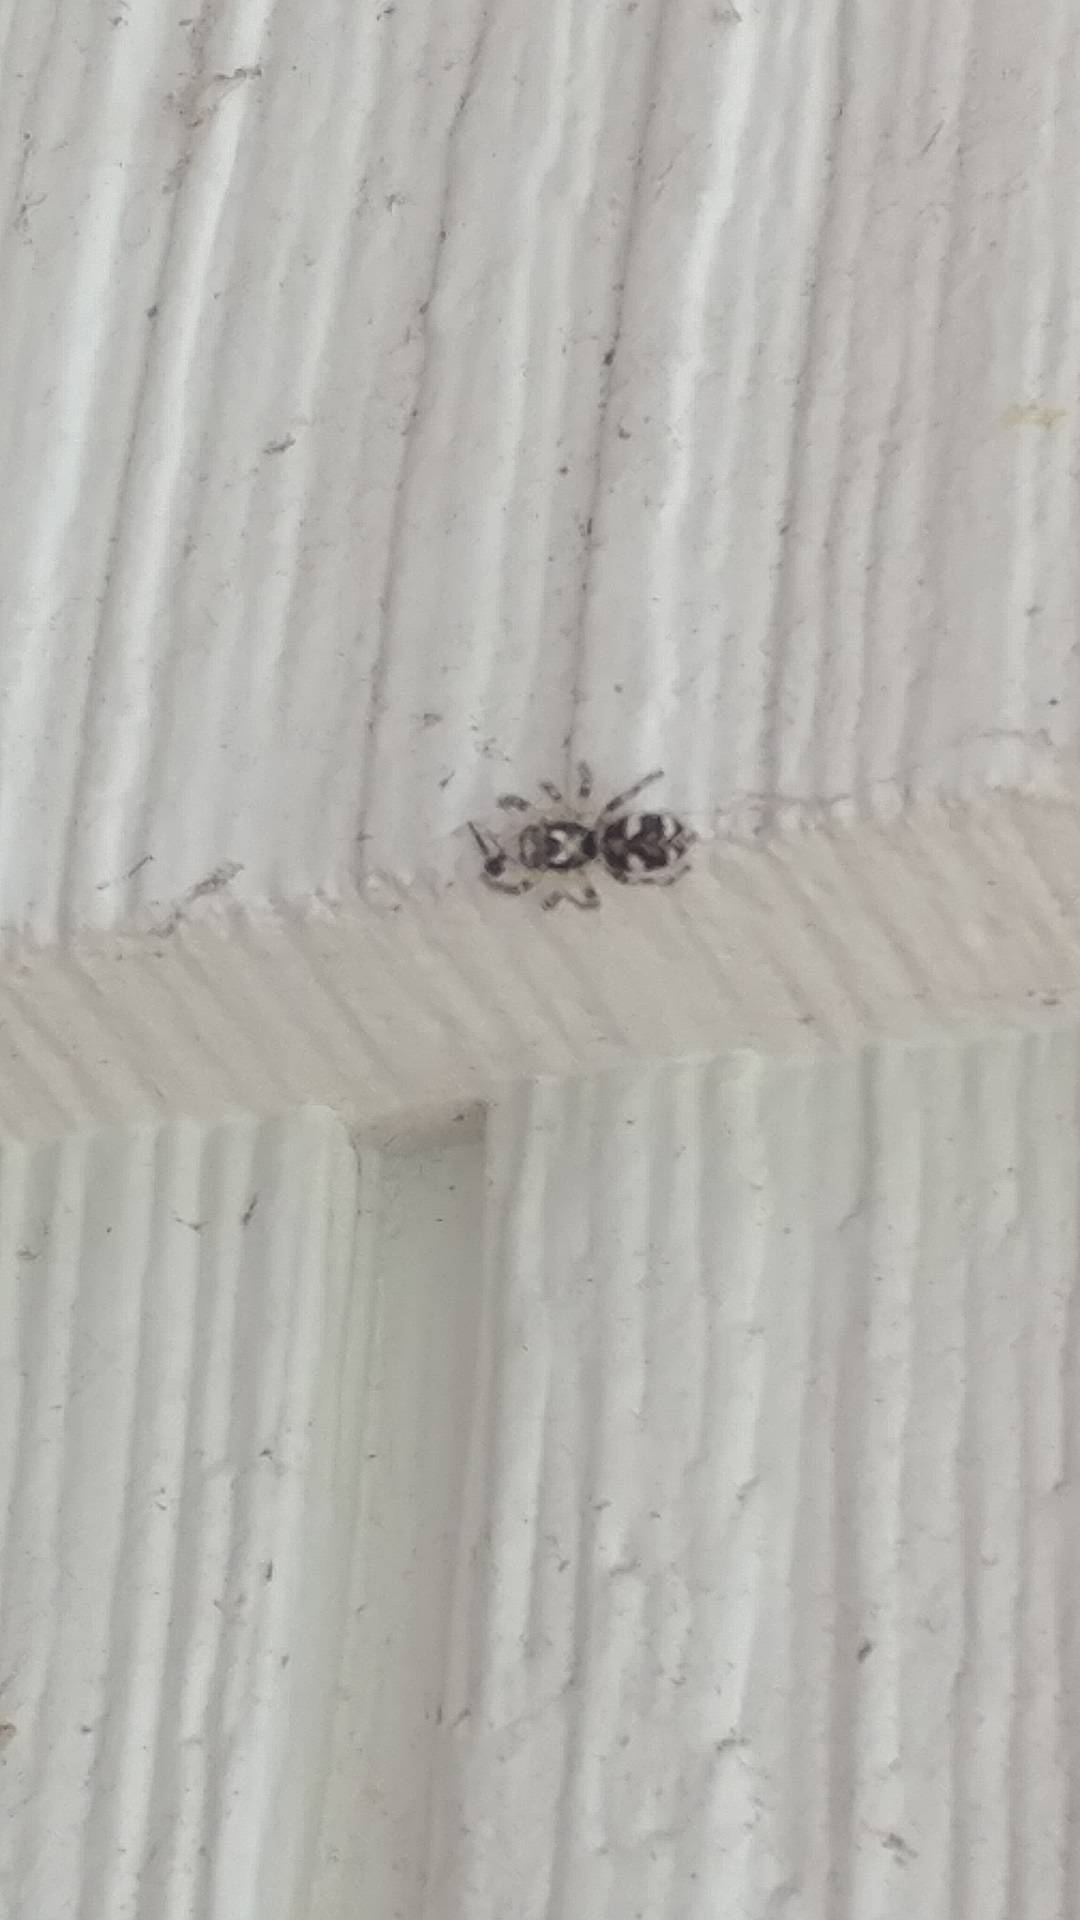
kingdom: Animalia
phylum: Arthropoda
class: Arachnida
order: Araneae
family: Salticidae
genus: Salticus
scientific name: Salticus scenicus
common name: Zebra jumper
